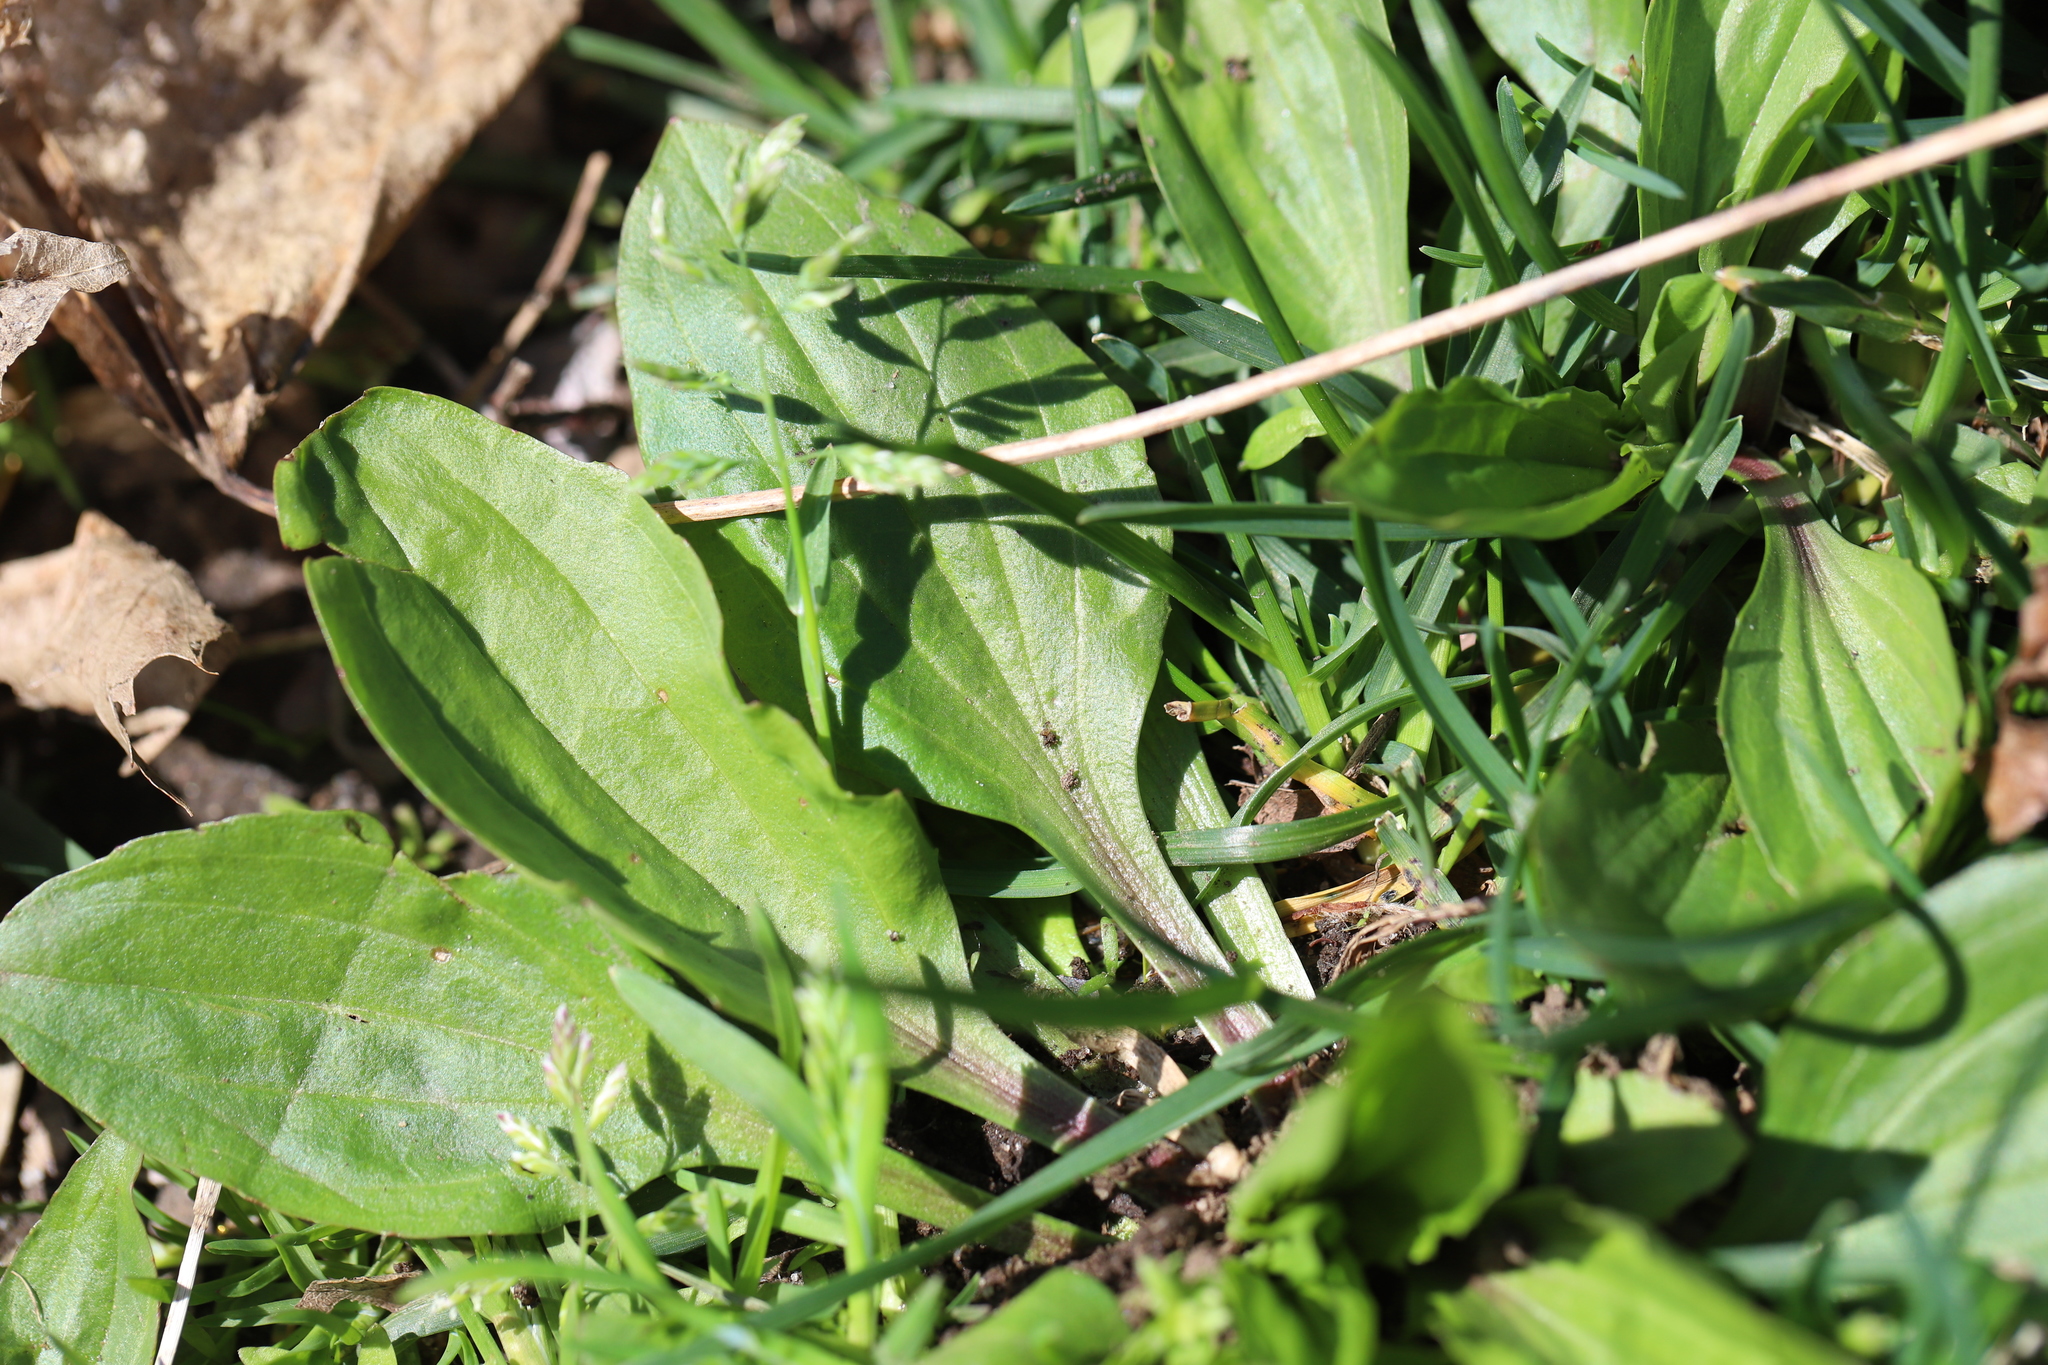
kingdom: Plantae
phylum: Tracheophyta
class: Magnoliopsida
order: Lamiales
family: Plantaginaceae
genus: Plantago
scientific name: Plantago rugelii
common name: American plantain
